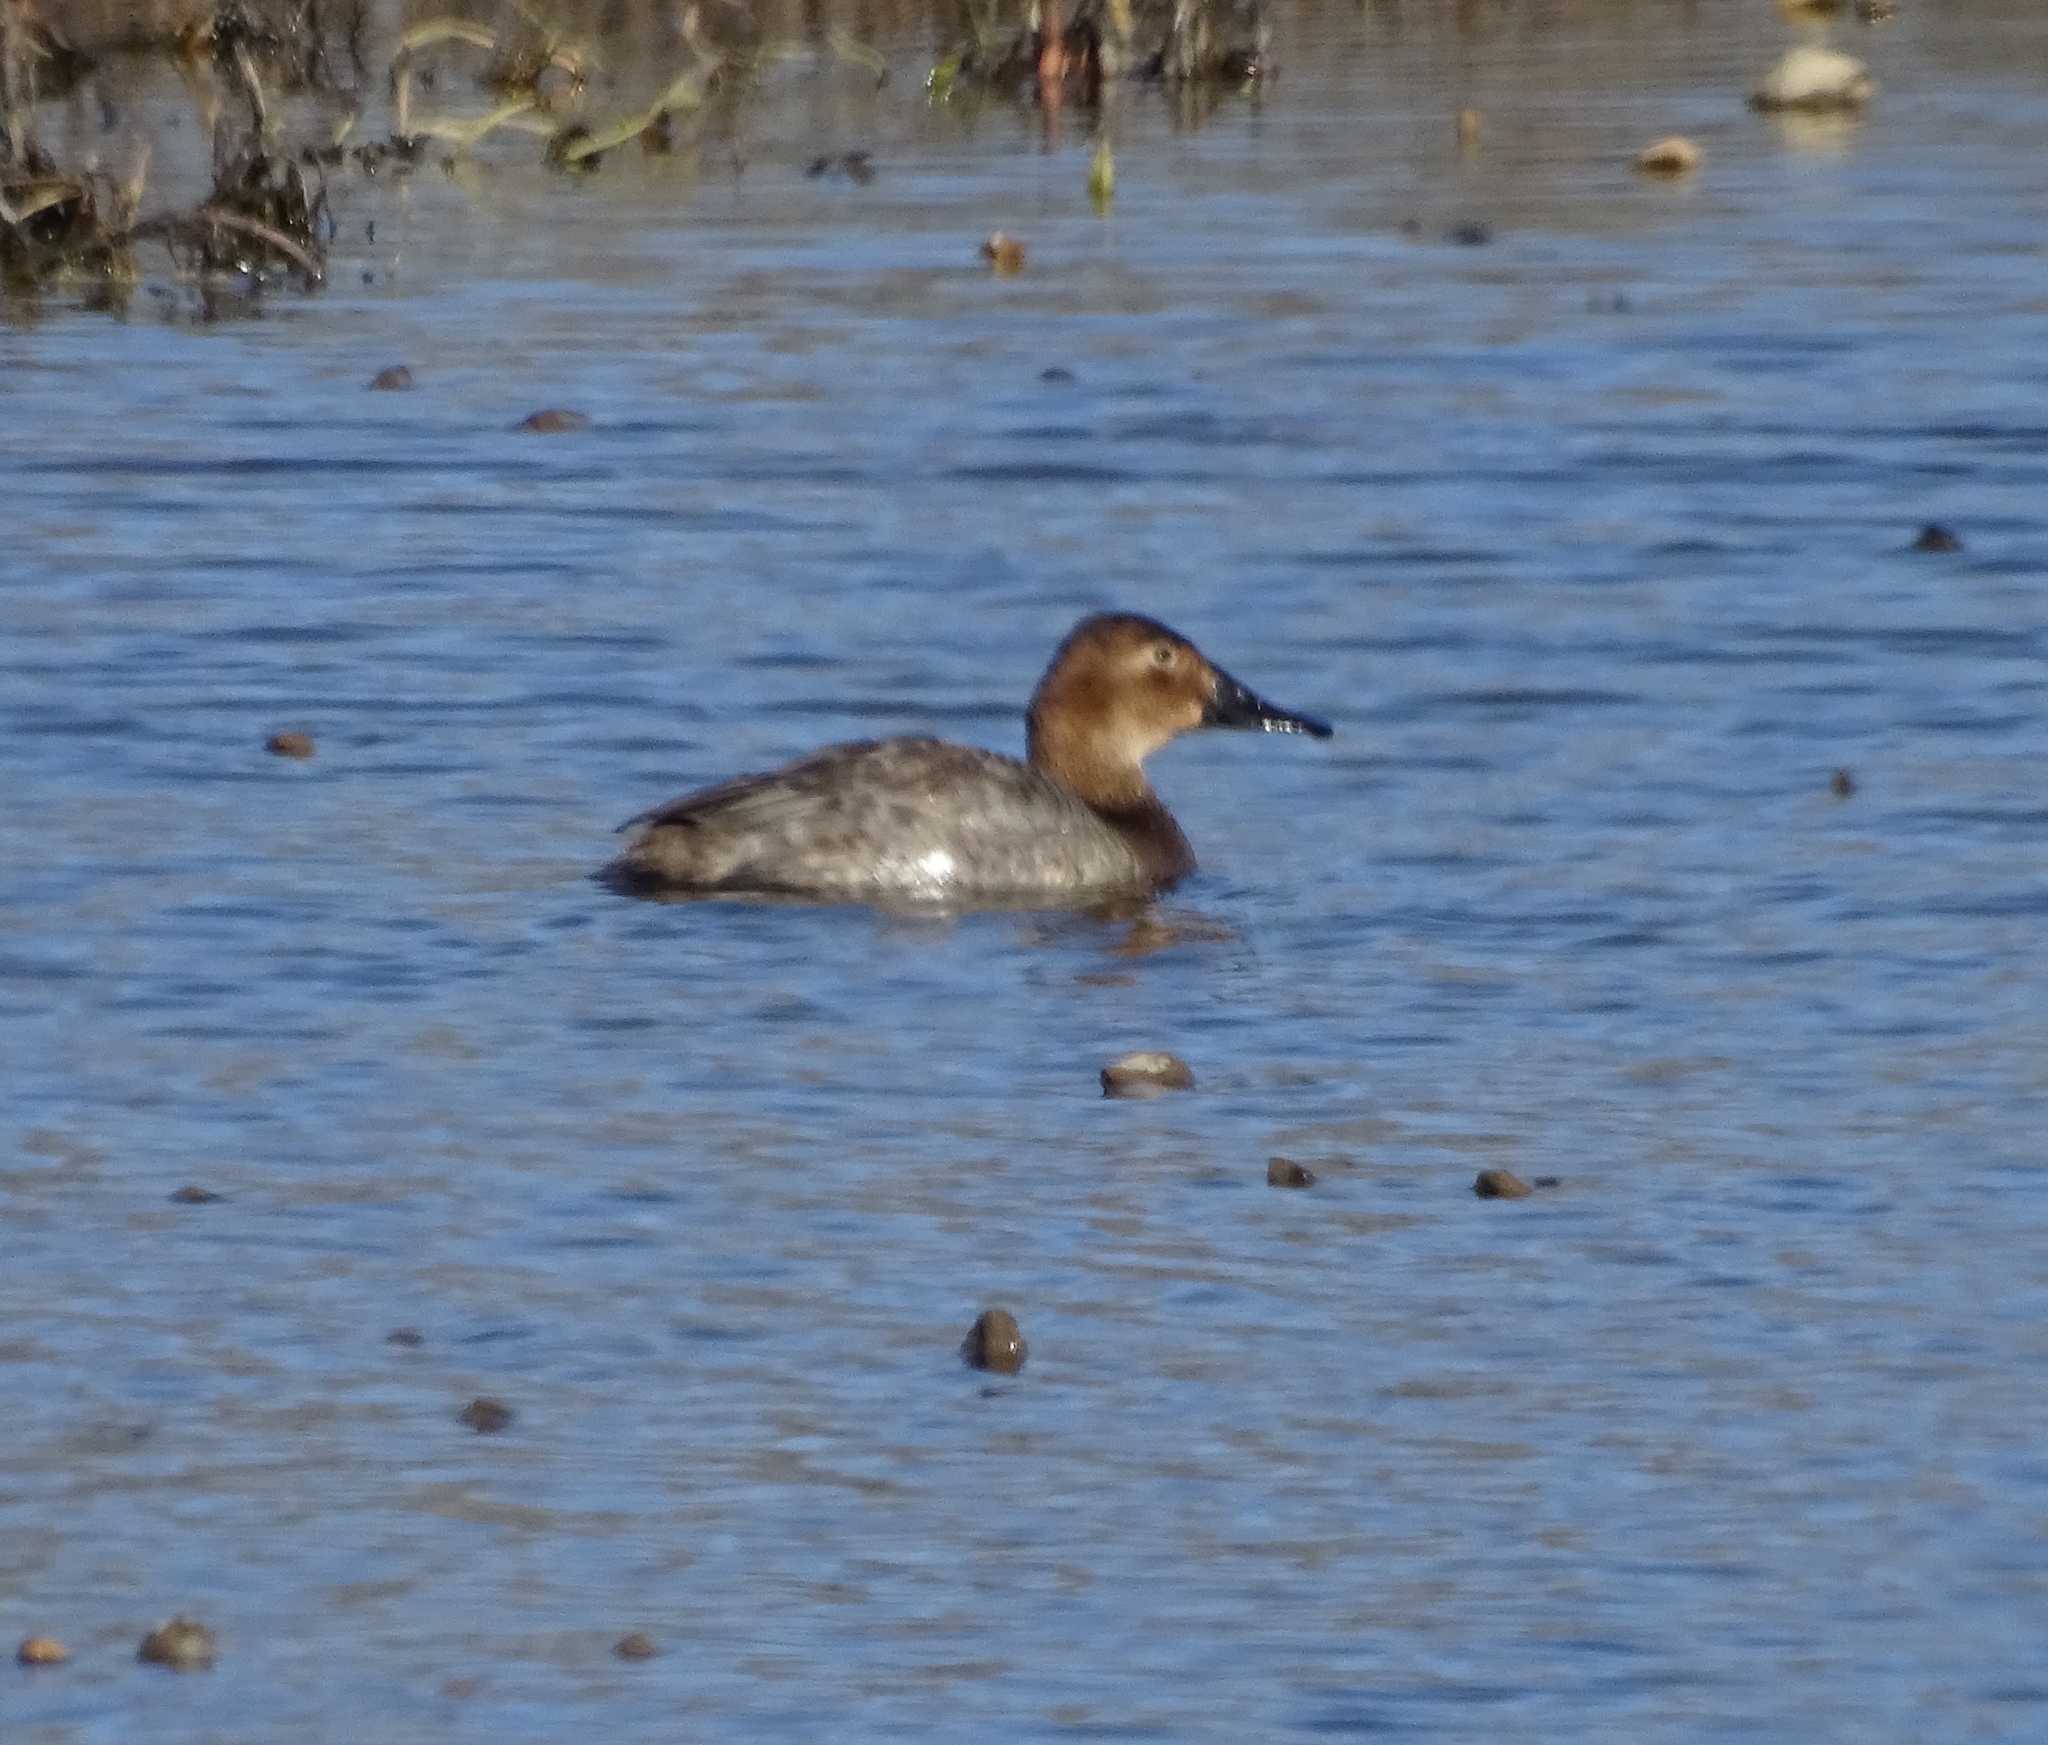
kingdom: Animalia
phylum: Chordata
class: Aves
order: Anseriformes
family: Anatidae
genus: Aythya
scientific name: Aythya valisineria
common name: Canvasback
